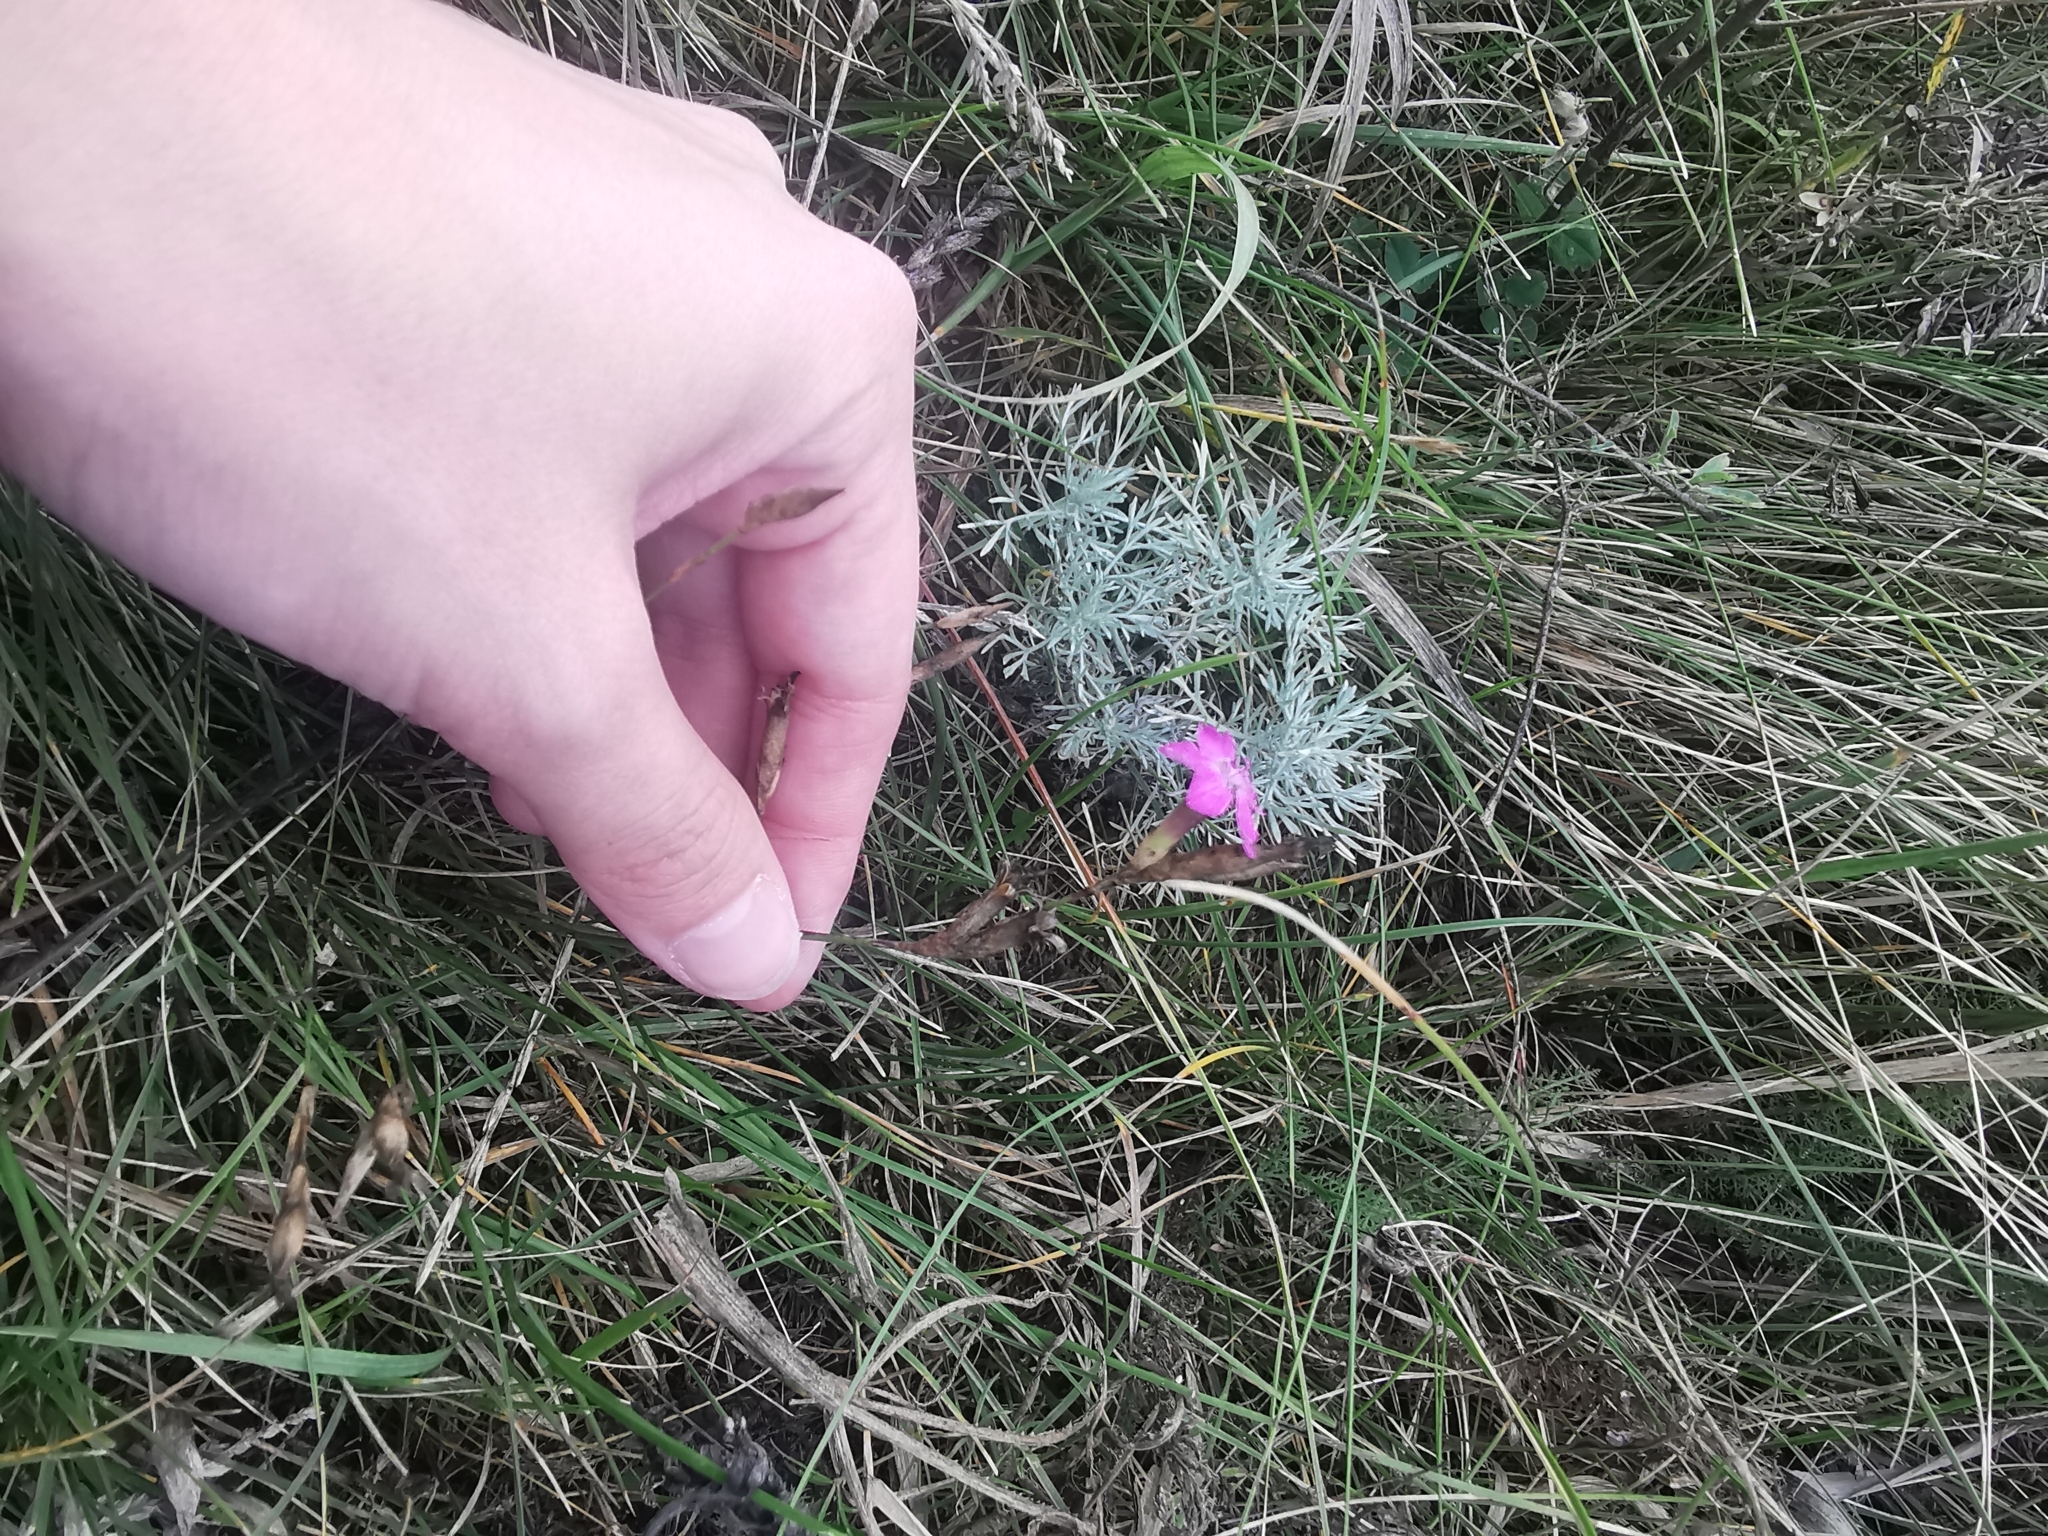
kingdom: Plantae
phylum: Tracheophyta
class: Magnoliopsida
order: Caryophyllales
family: Caryophyllaceae
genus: Dianthus
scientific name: Dianthus borbasii
